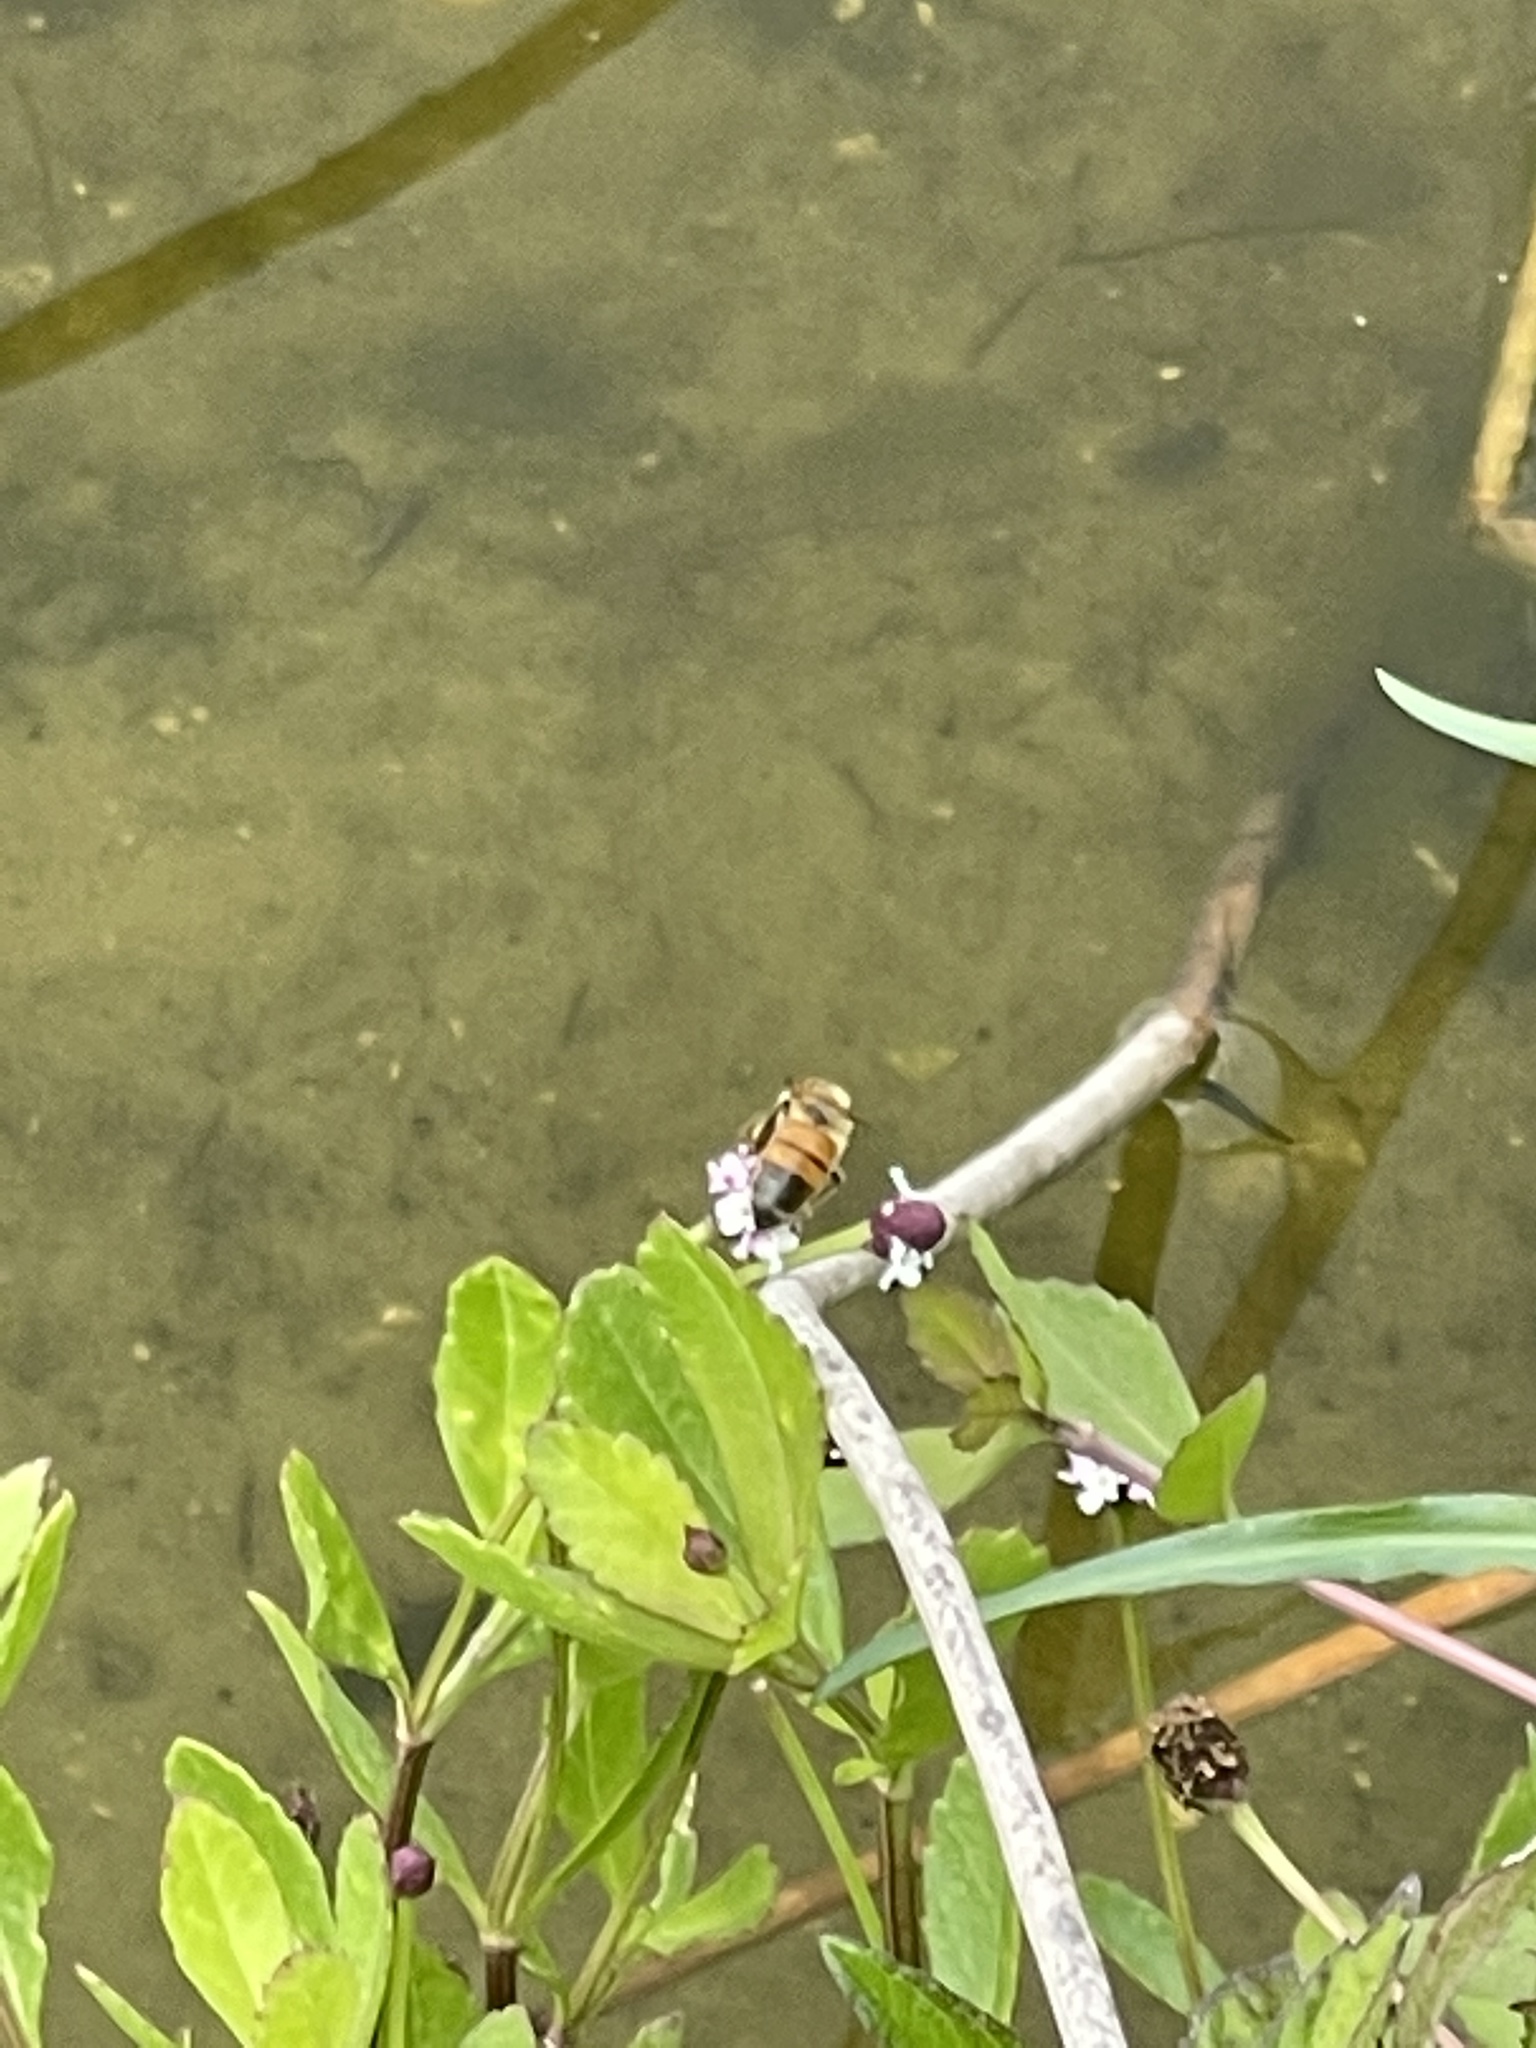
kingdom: Animalia
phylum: Arthropoda
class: Insecta
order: Hymenoptera
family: Apidae
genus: Apis
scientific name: Apis mellifera
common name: Honey bee
